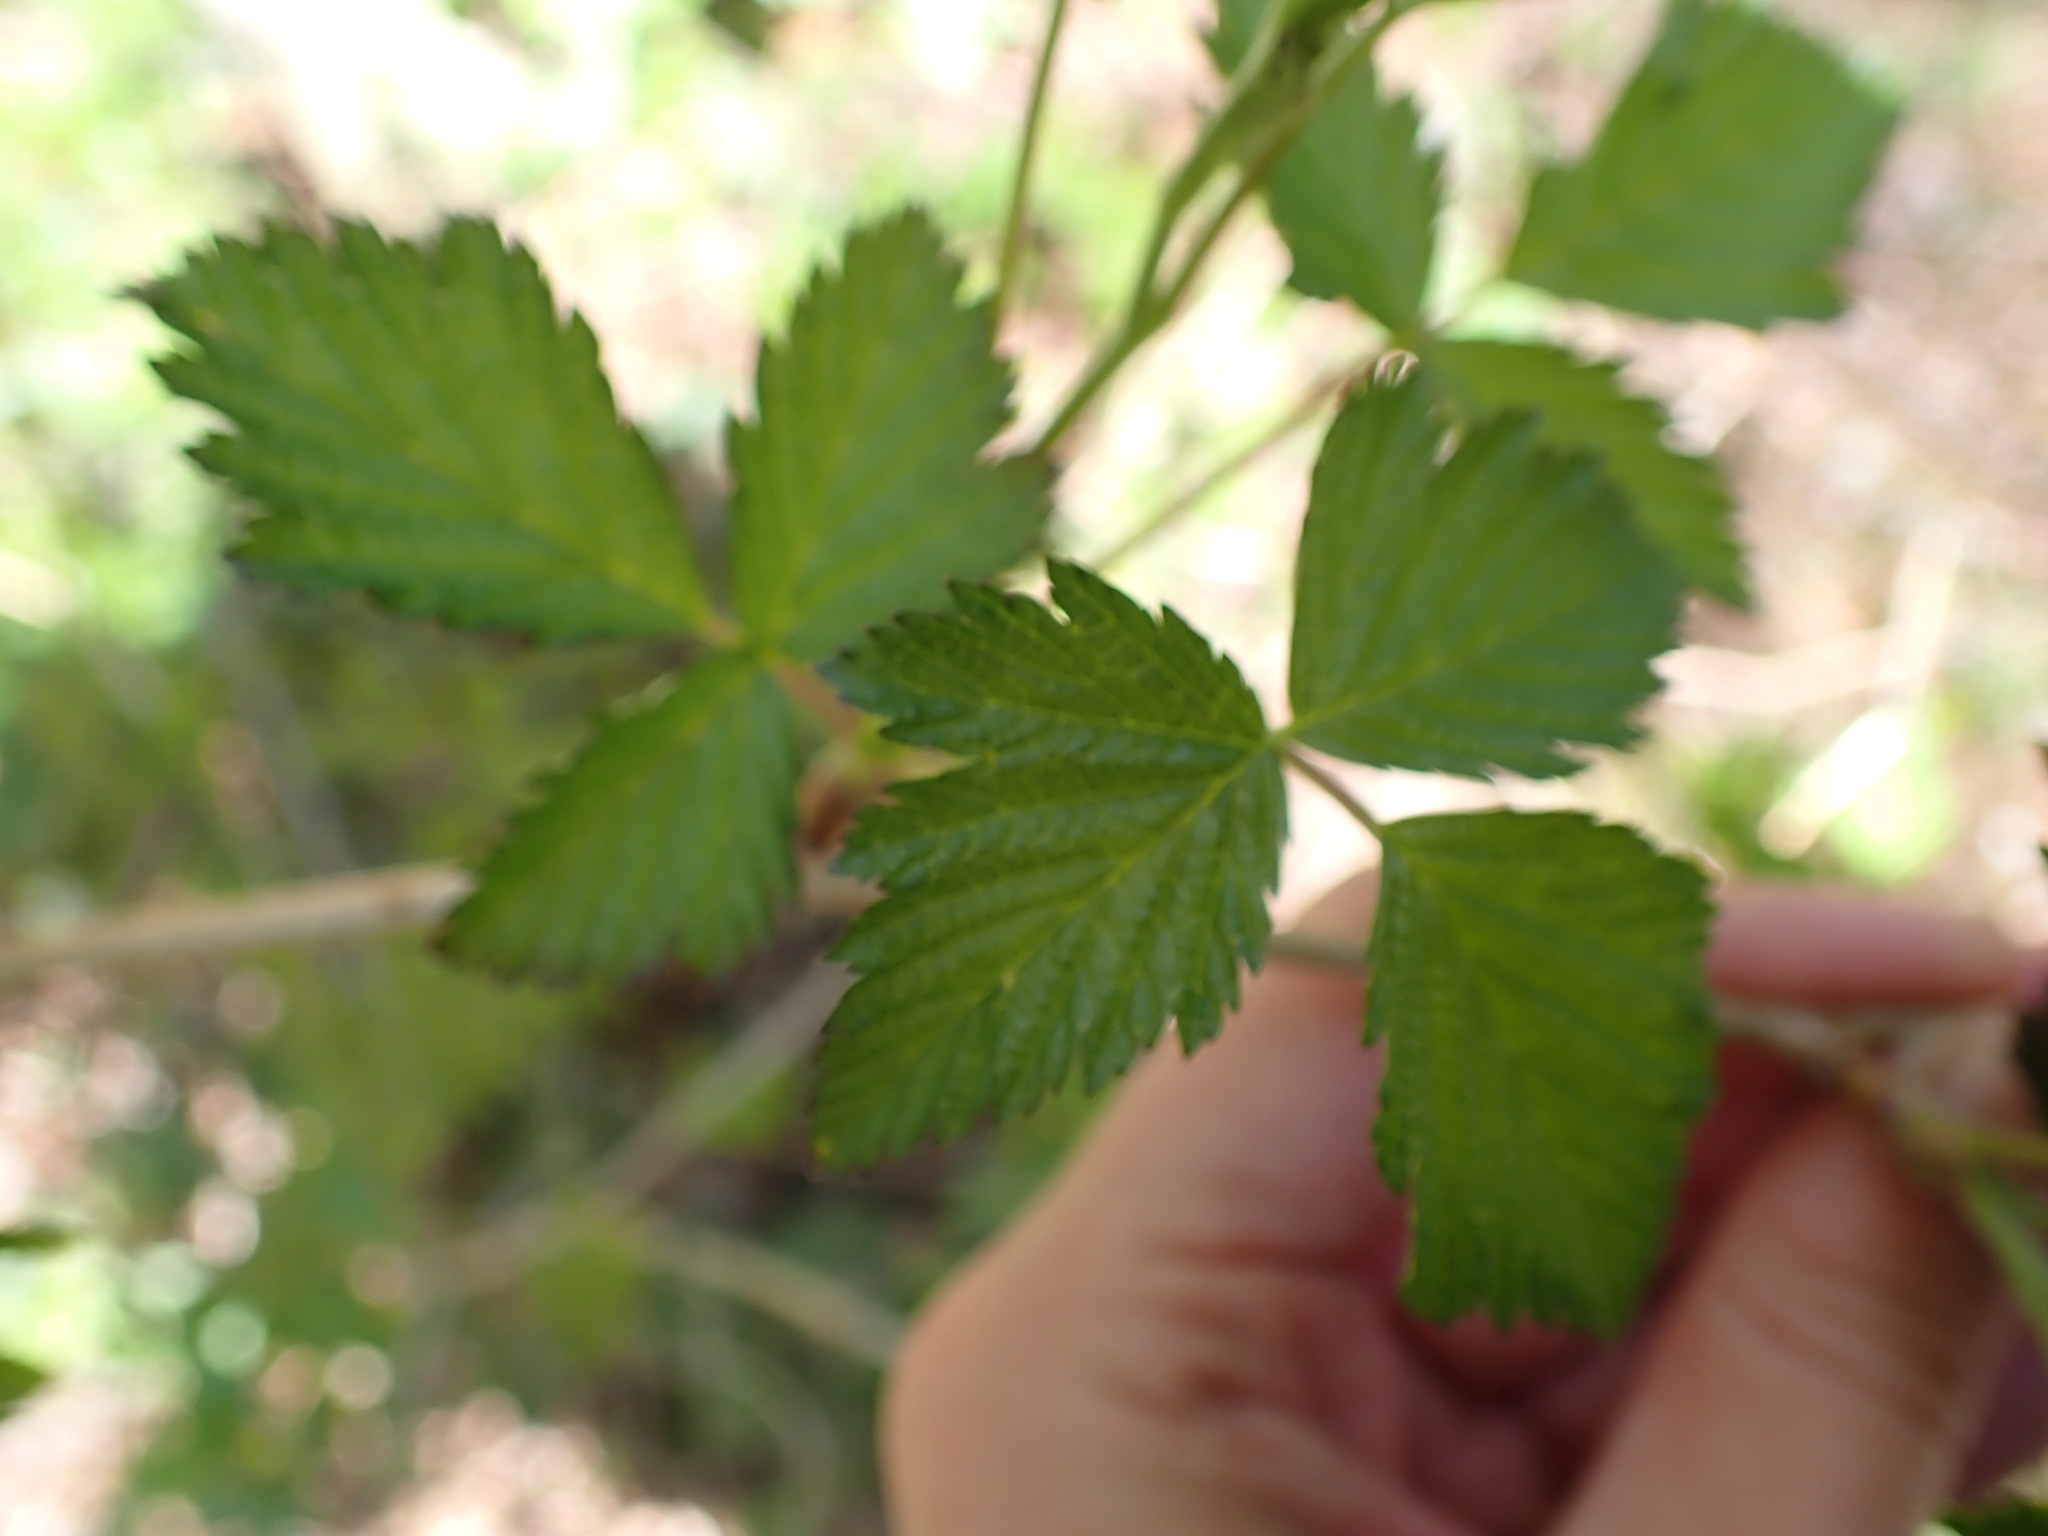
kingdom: Plantae
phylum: Tracheophyta
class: Magnoliopsida
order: Rosales
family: Rosaceae
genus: Rubus
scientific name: Rubus spectabilis
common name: Salmonberry
